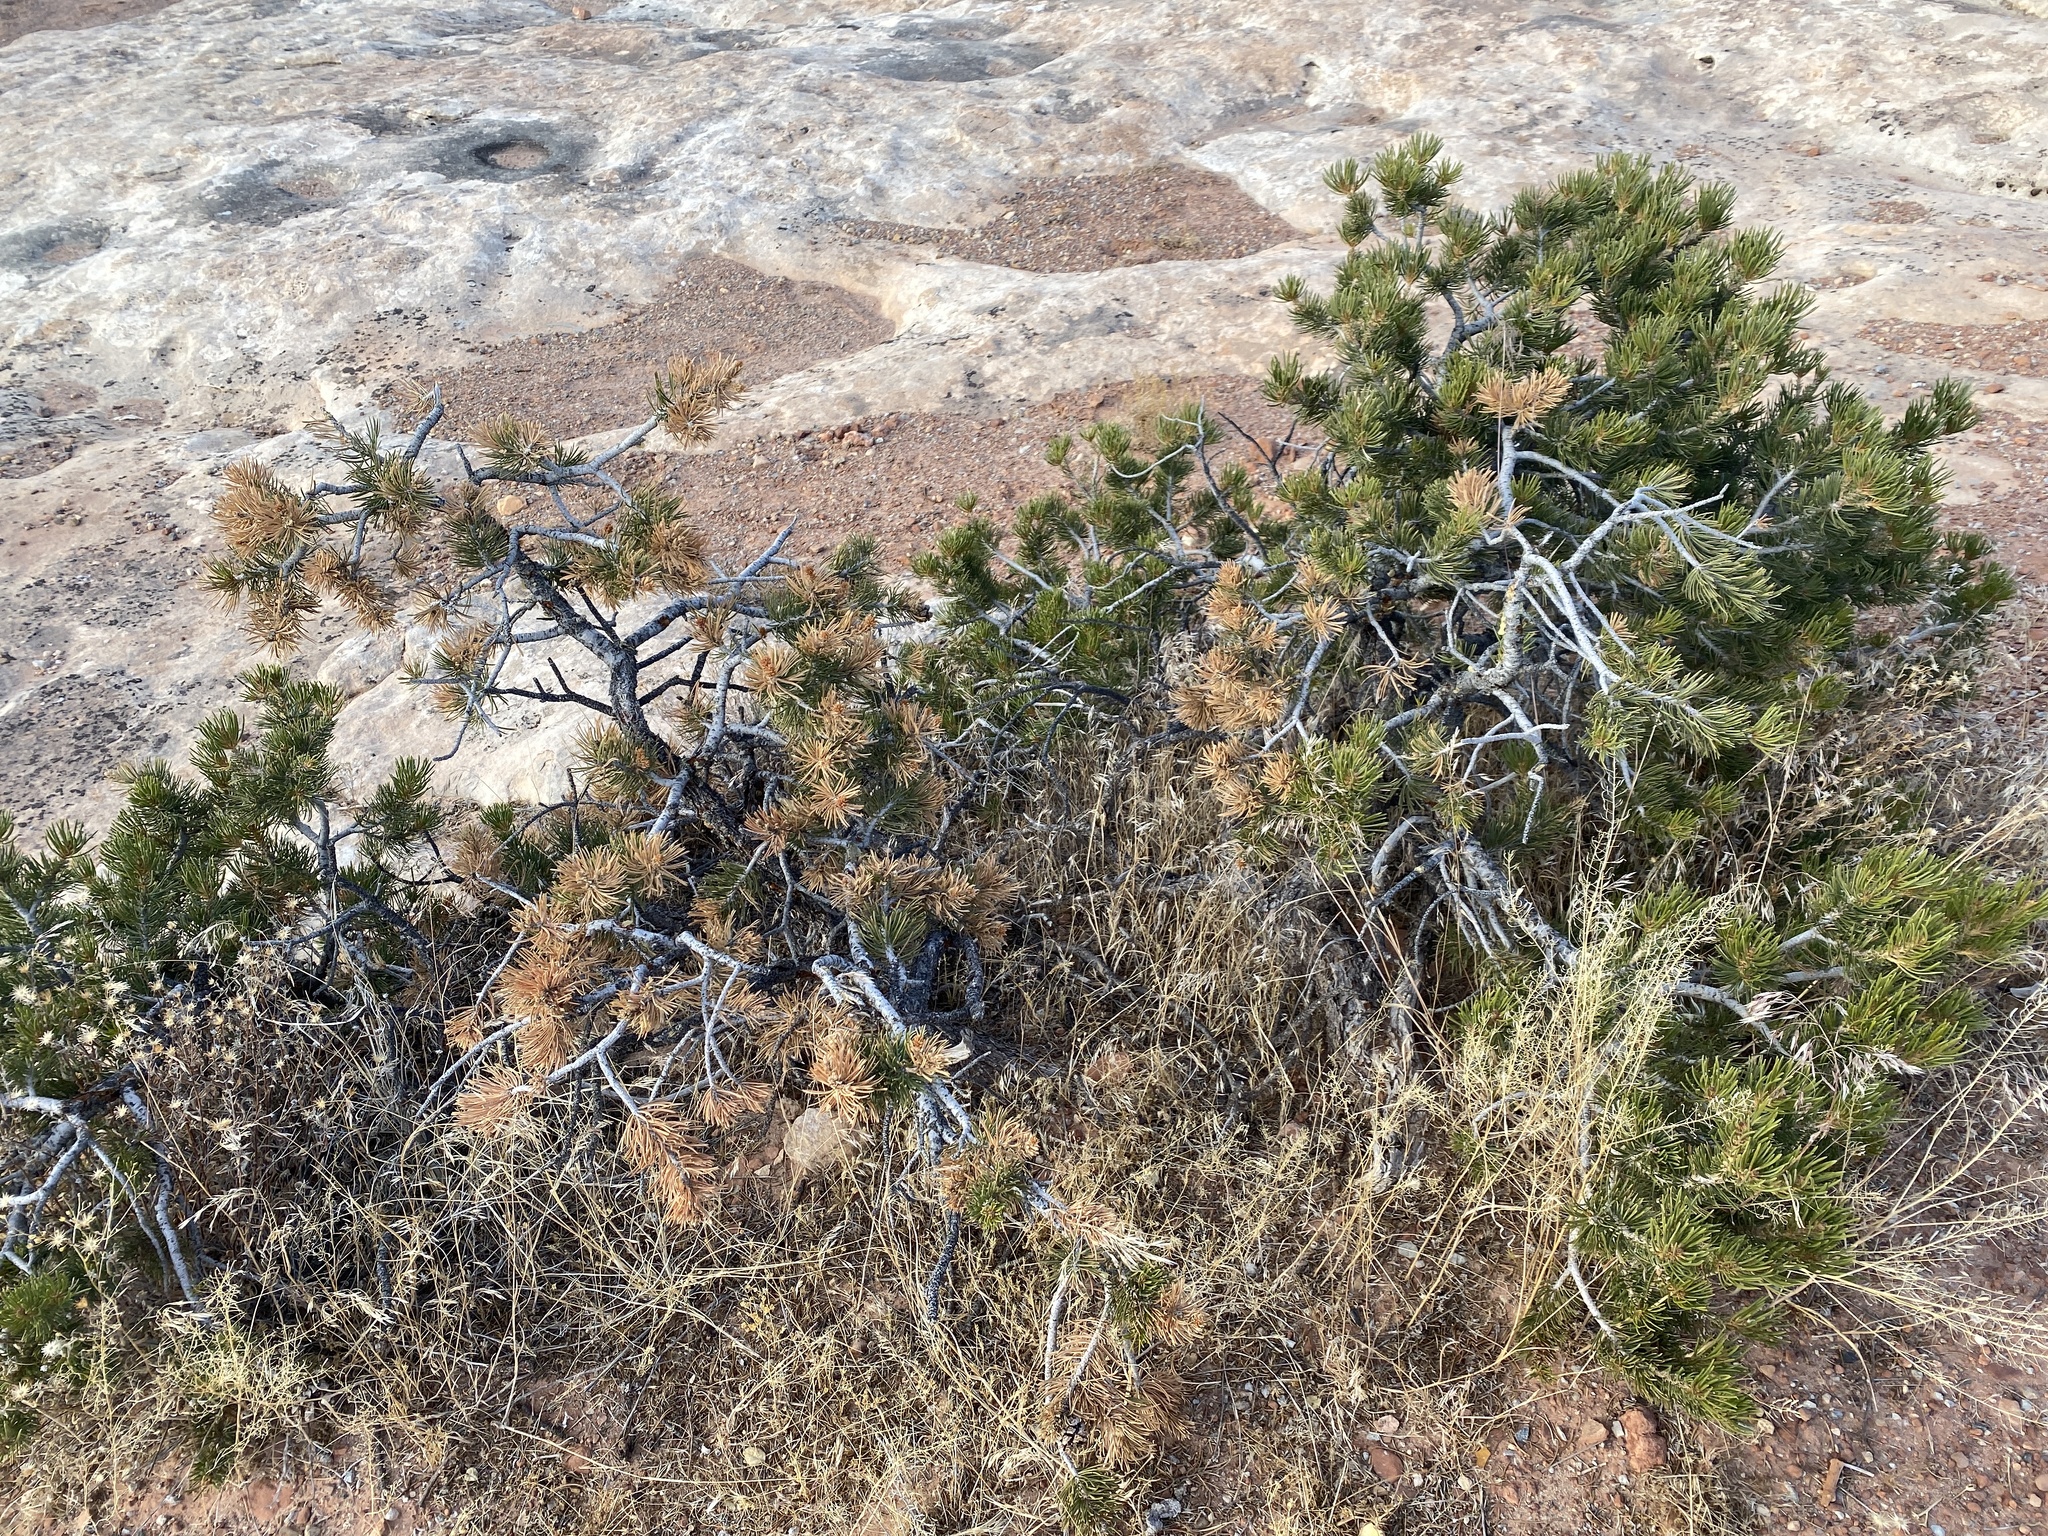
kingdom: Plantae
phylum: Tracheophyta
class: Pinopsida
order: Pinales
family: Pinaceae
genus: Pinus
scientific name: Pinus edulis
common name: Colorado pinyon
